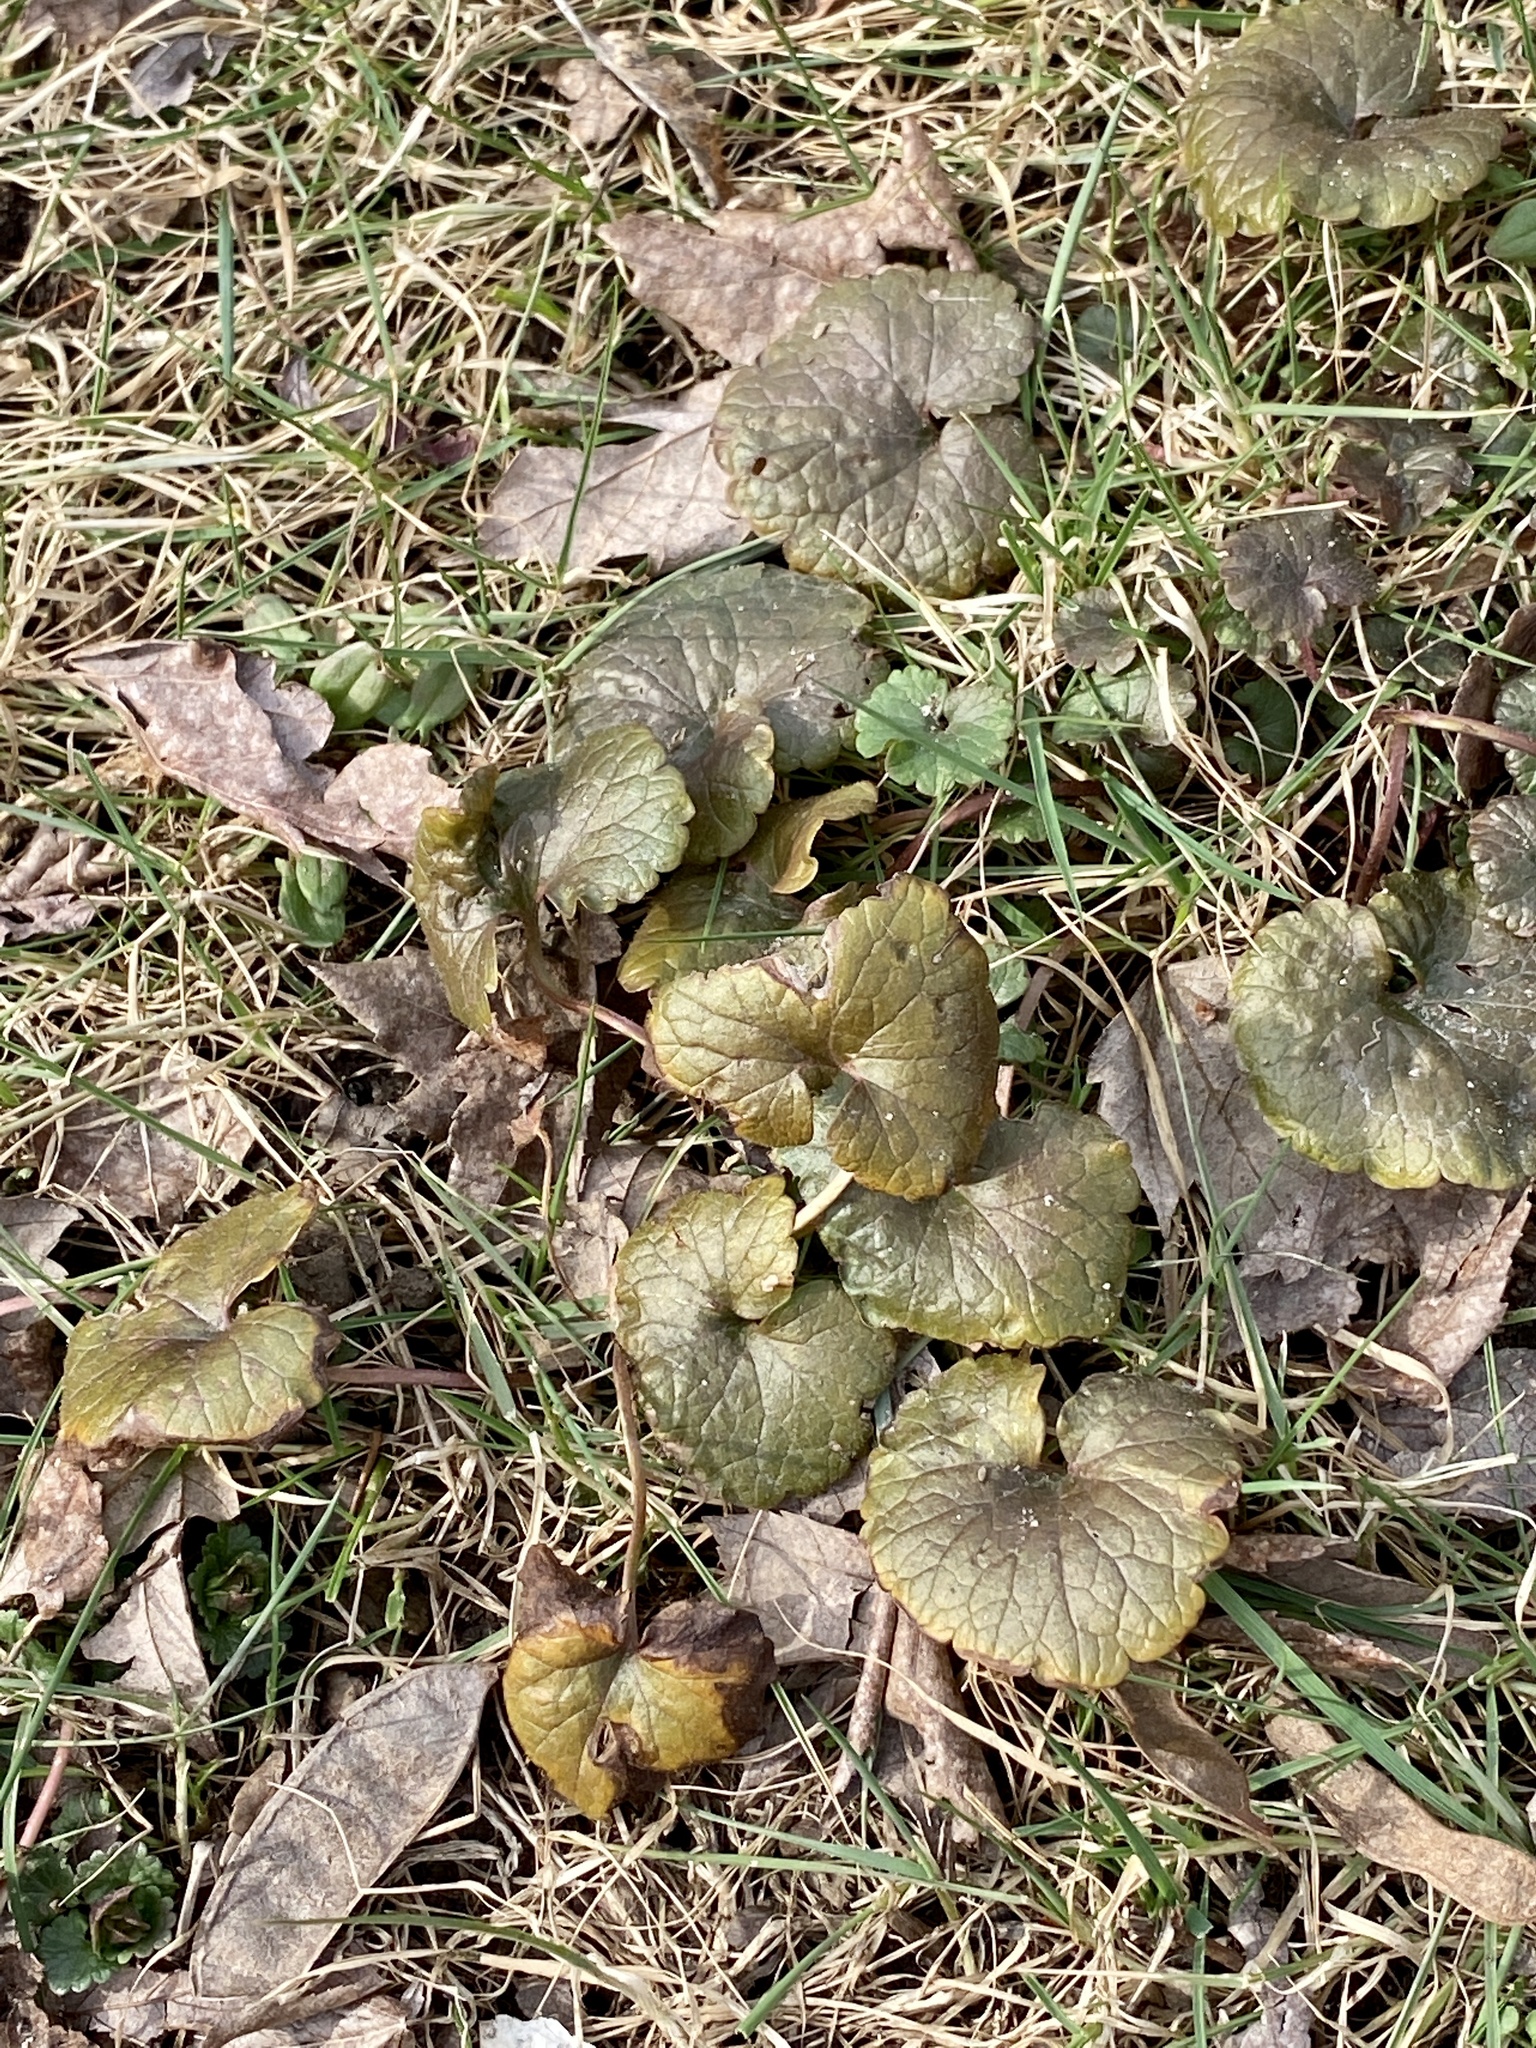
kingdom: Plantae
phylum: Tracheophyta
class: Magnoliopsida
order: Lamiales
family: Lamiaceae
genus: Glechoma
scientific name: Glechoma hederacea
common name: Ground ivy
